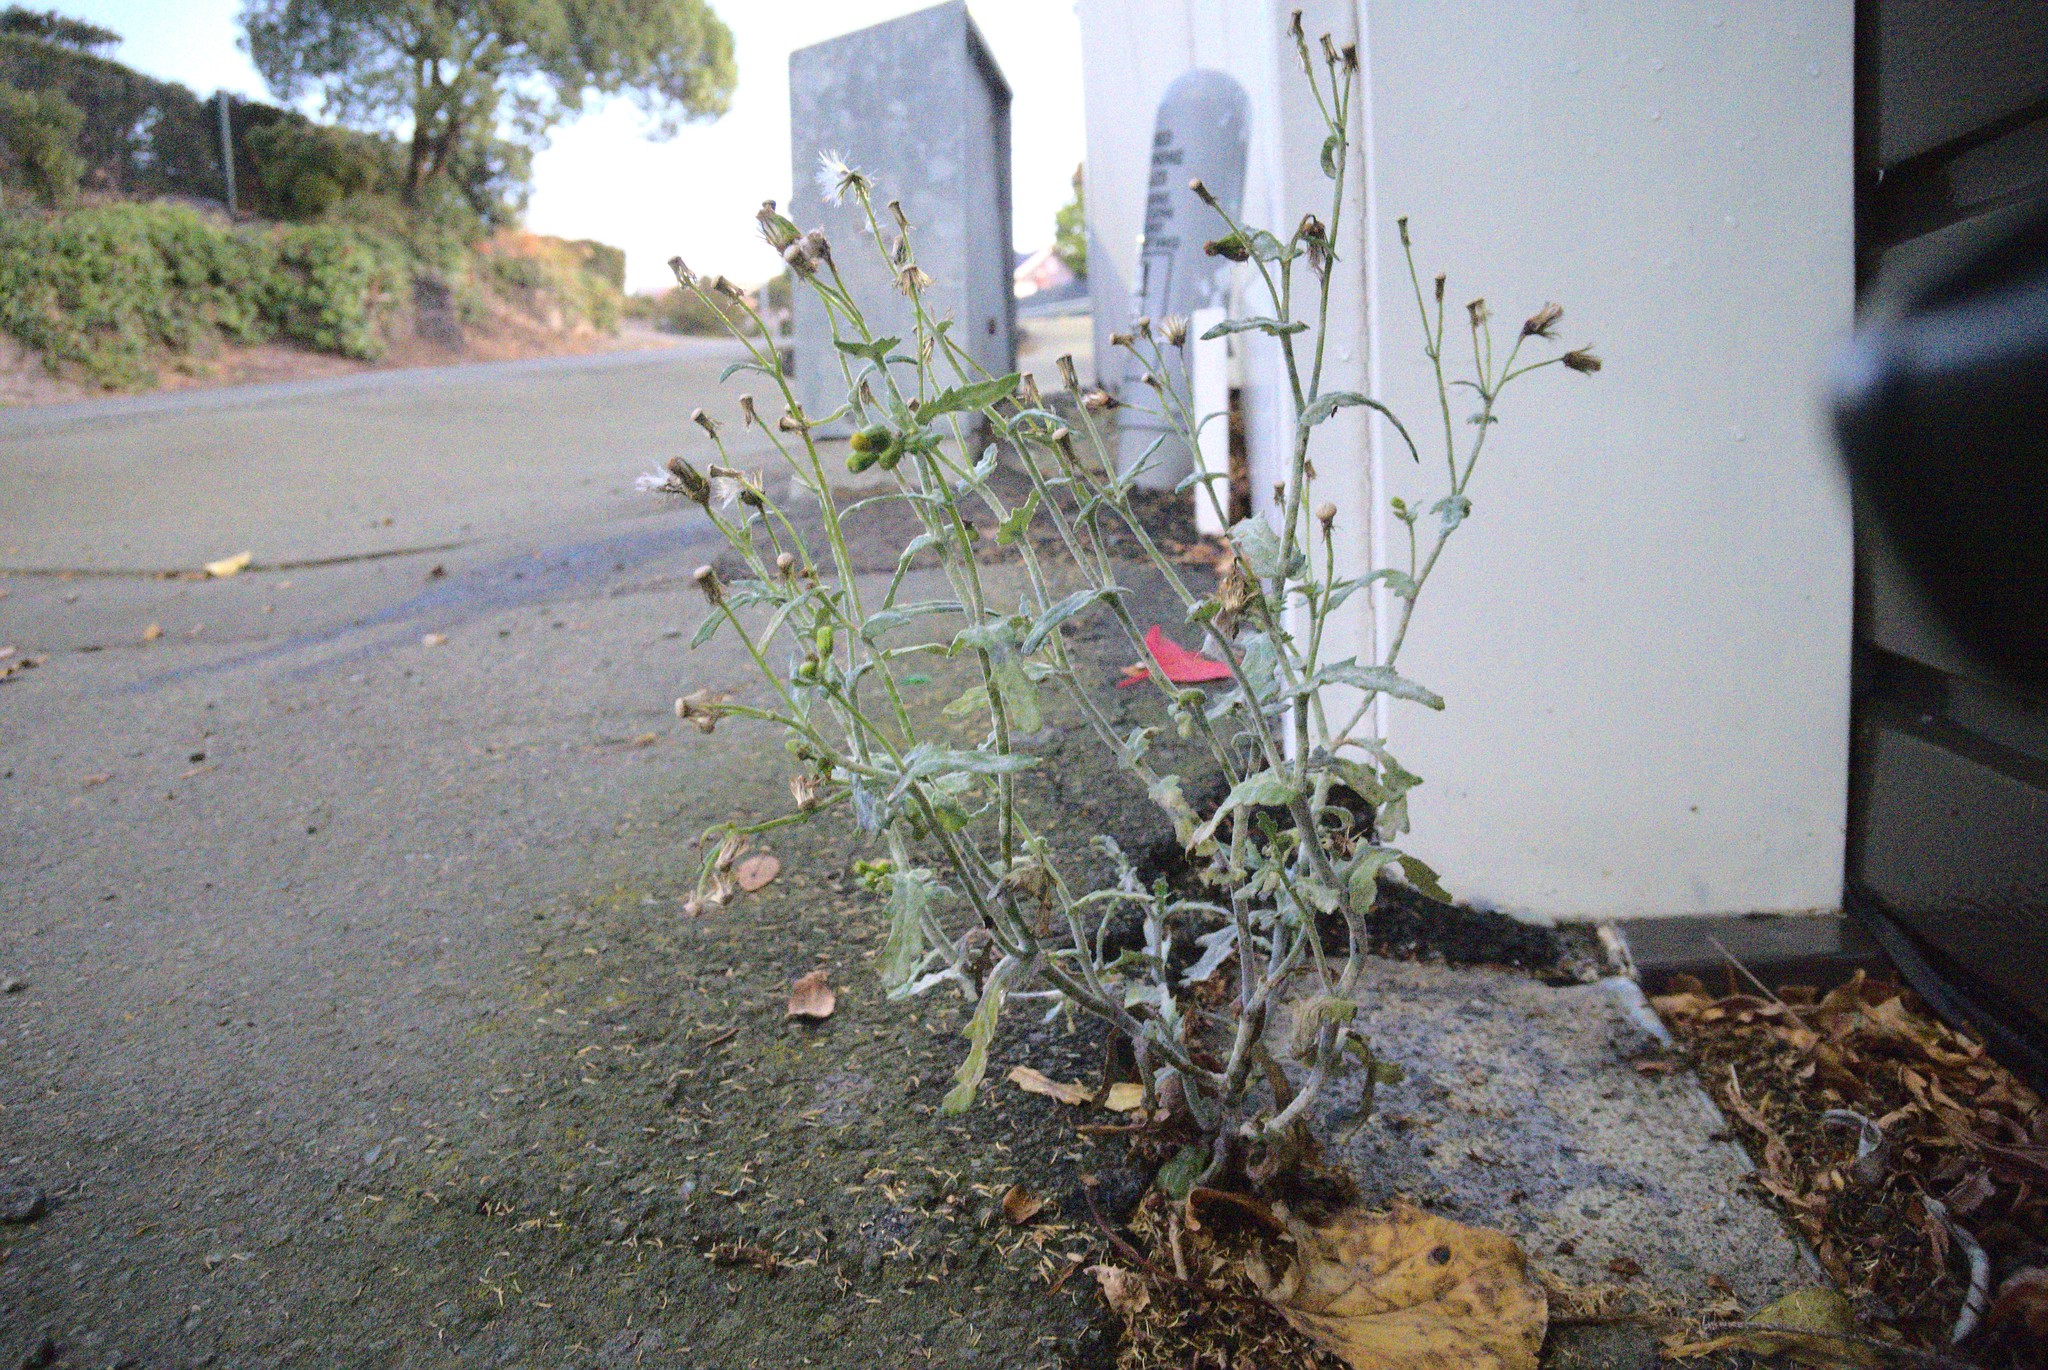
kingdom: Plantae
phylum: Tracheophyta
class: Magnoliopsida
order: Asterales
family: Asteraceae
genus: Senecio
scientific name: Senecio vulgaris
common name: Old-man-in-the-spring
